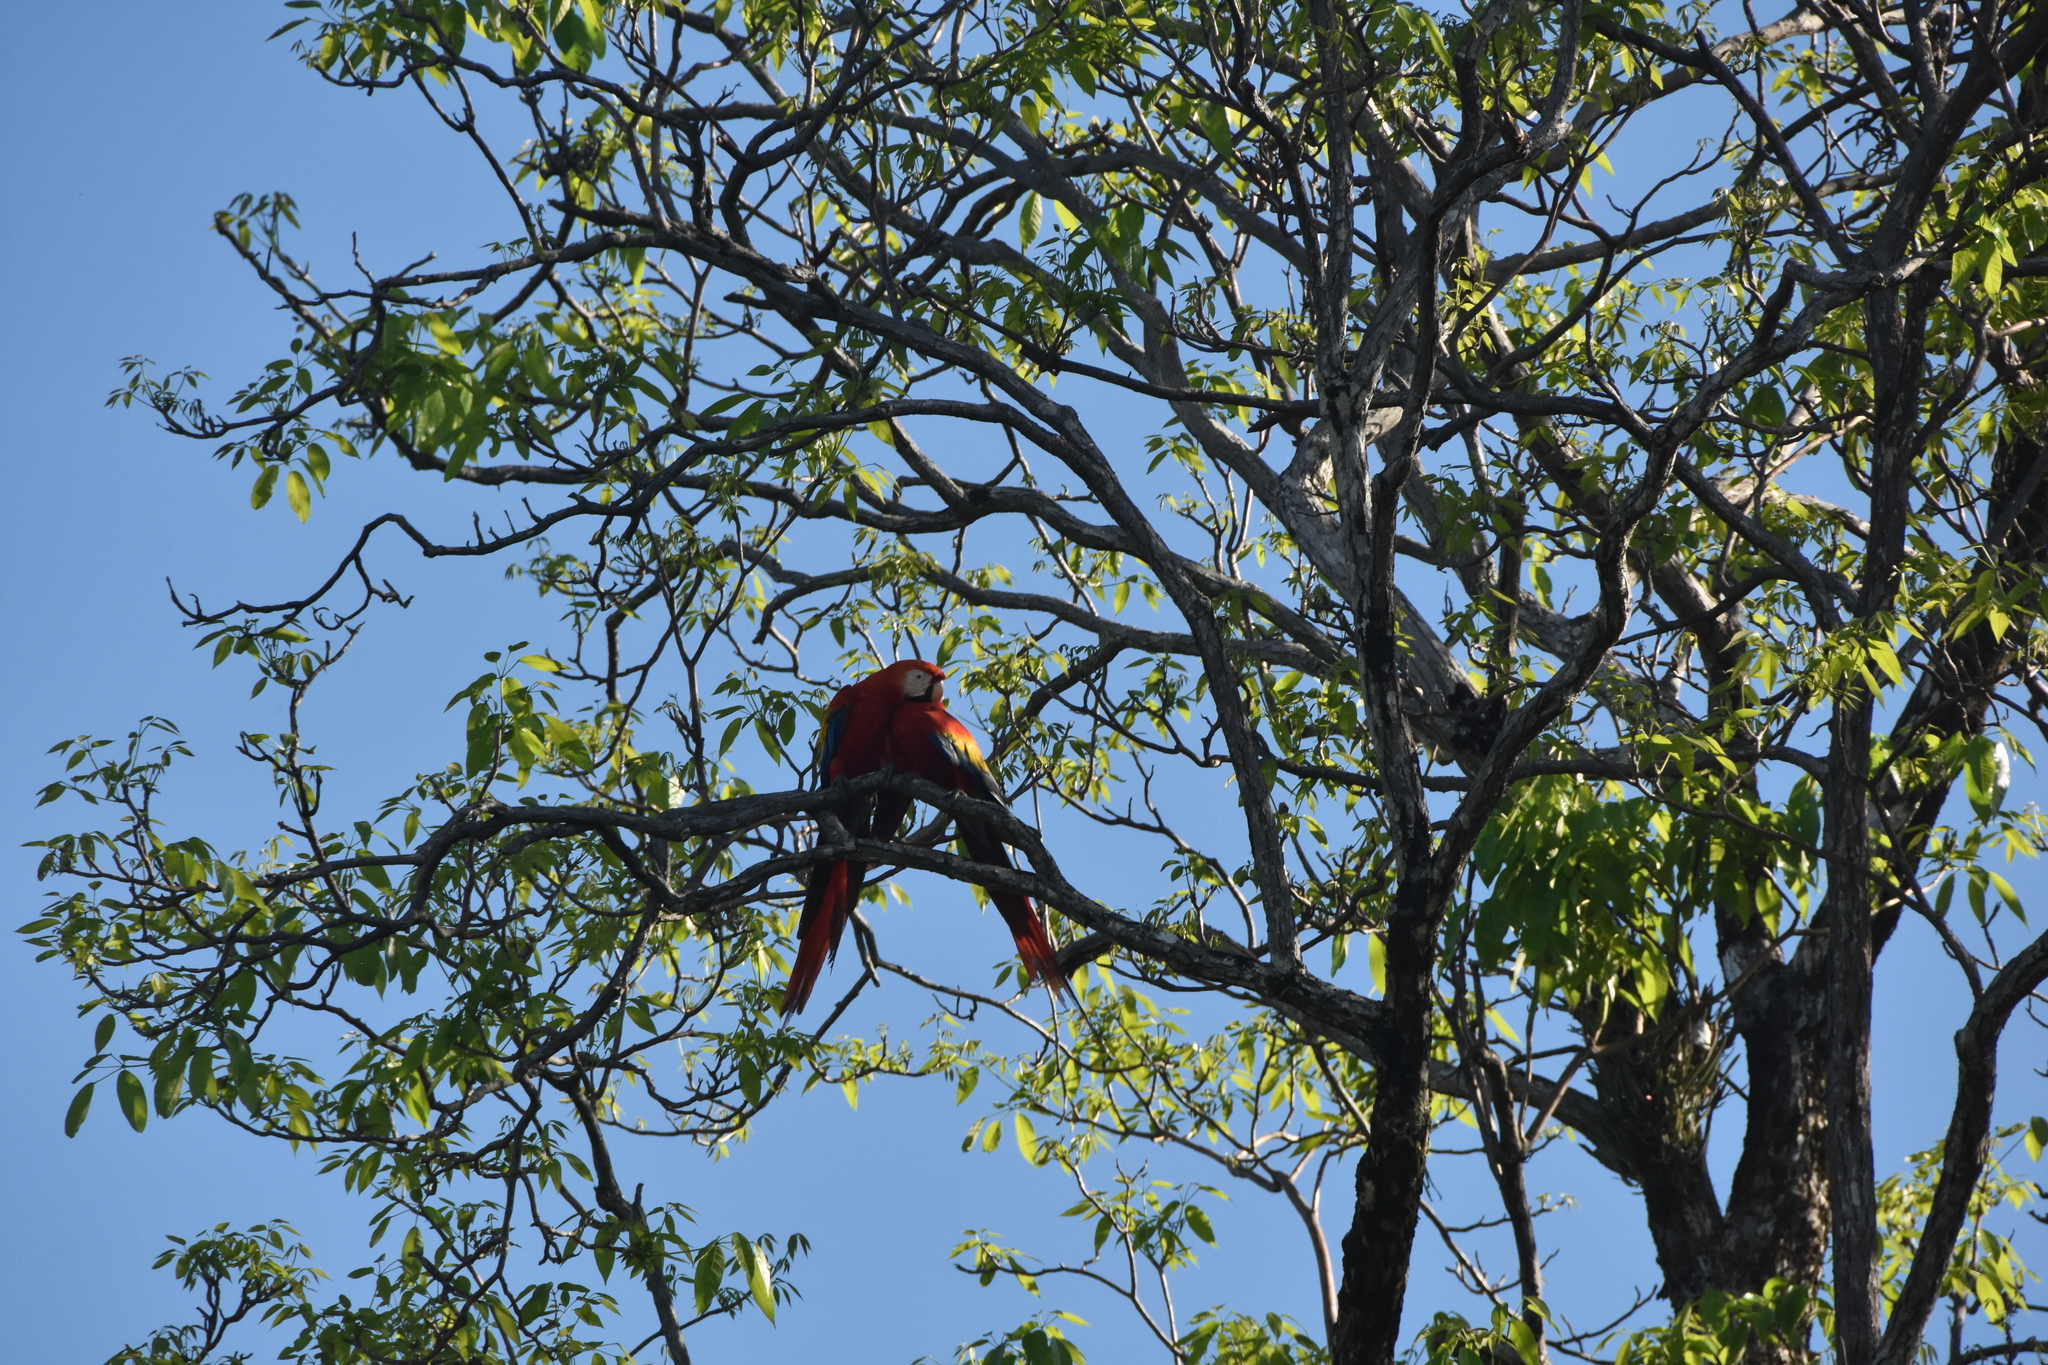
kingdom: Animalia
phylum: Chordata
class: Aves
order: Psittaciformes
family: Psittacidae
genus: Ara
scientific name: Ara macao
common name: Scarlet macaw
